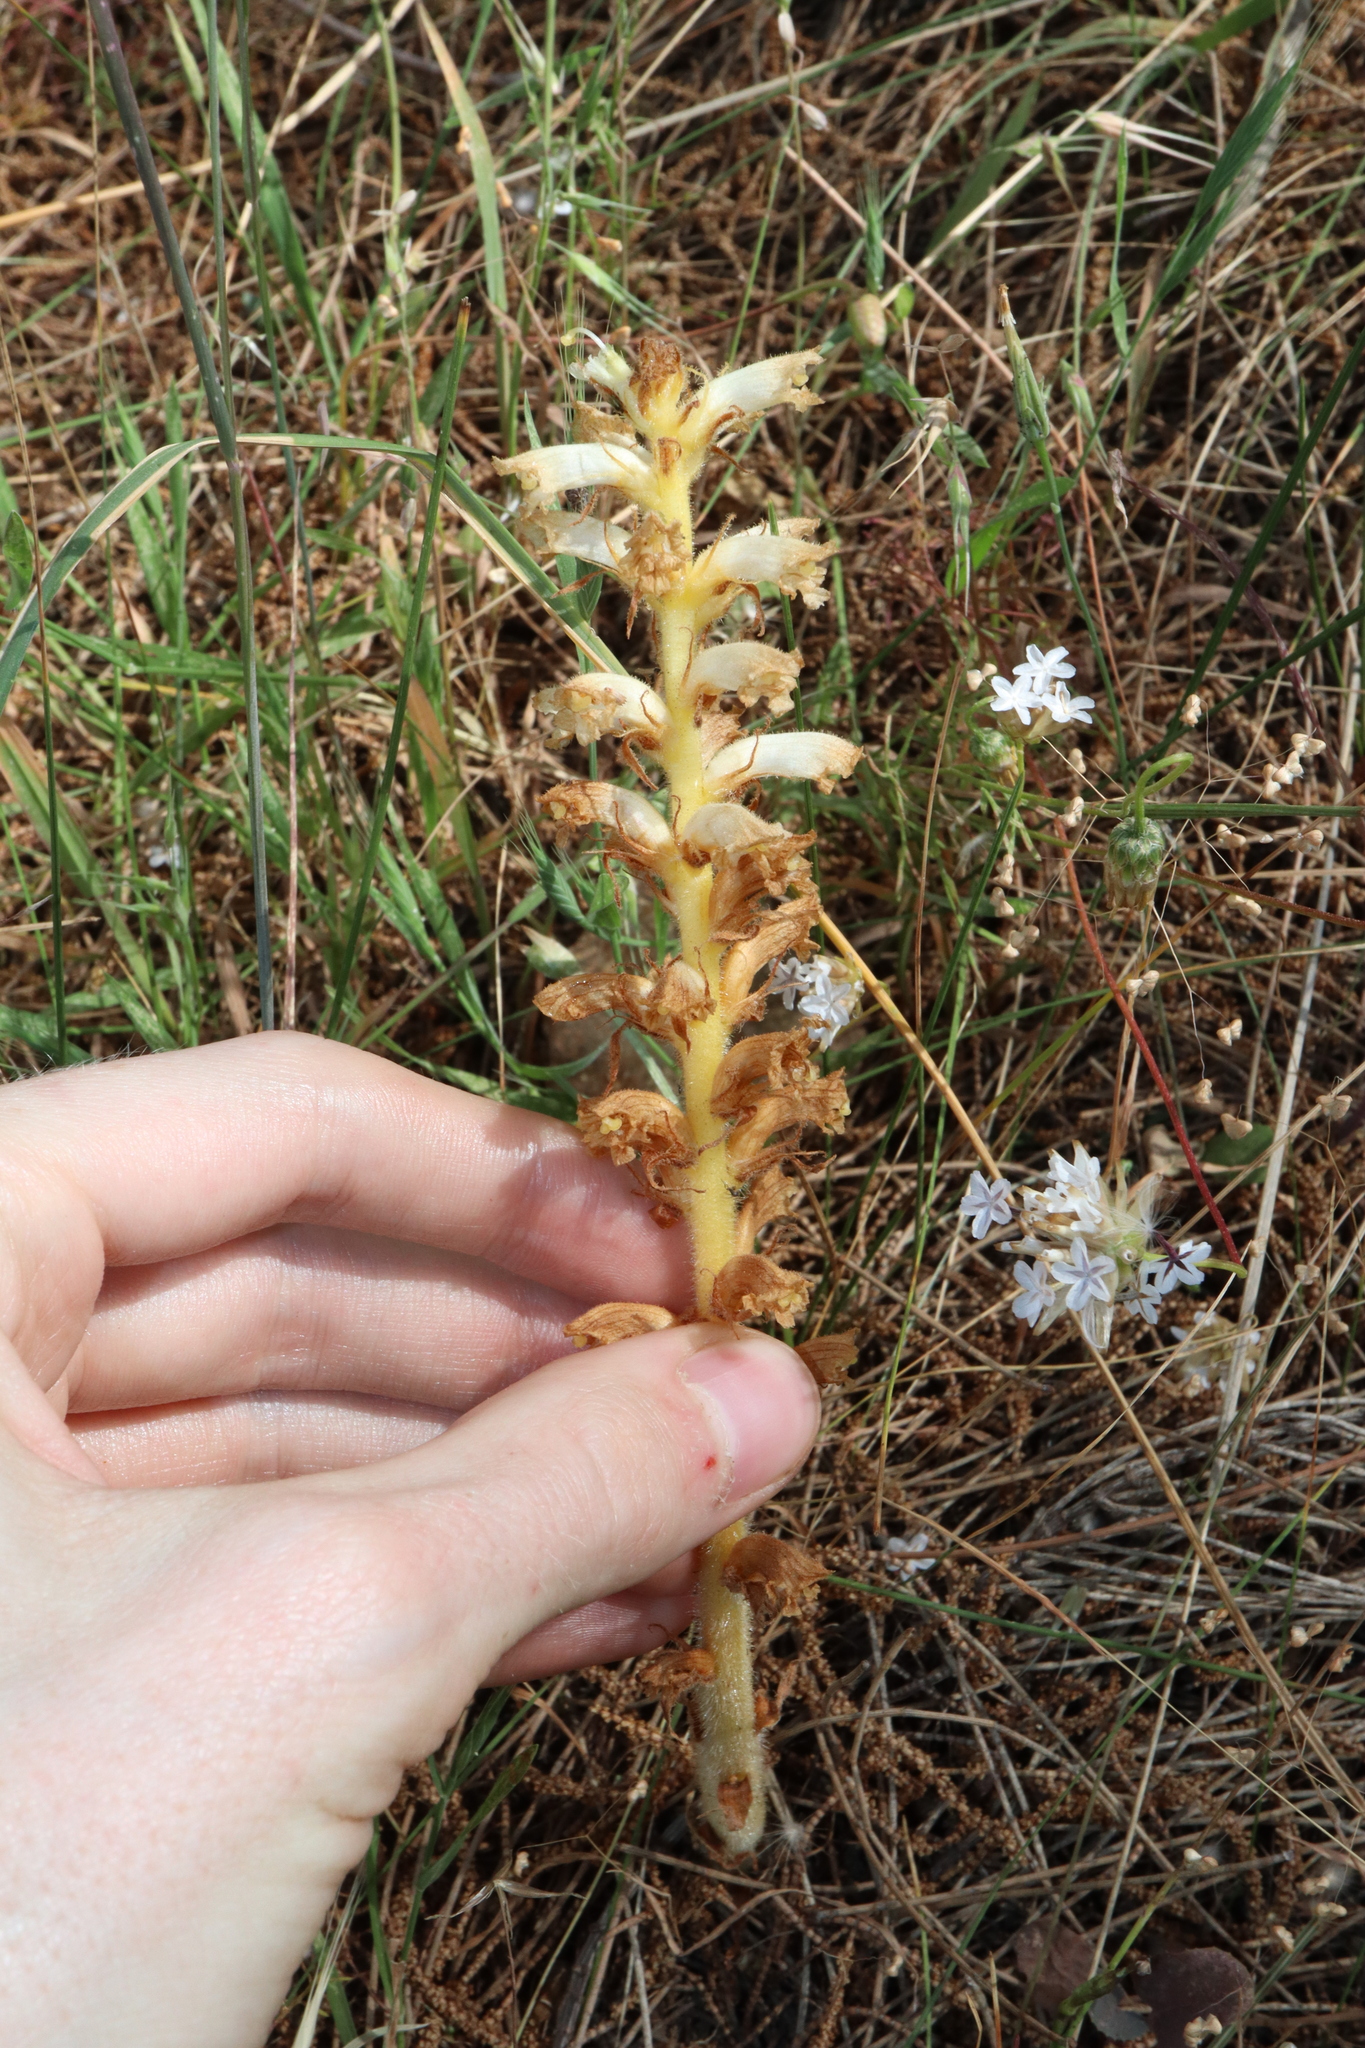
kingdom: Plantae
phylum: Tracheophyta
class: Magnoliopsida
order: Lamiales
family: Orobanchaceae
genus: Orobanche
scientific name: Orobanche minor
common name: Common broomrape
